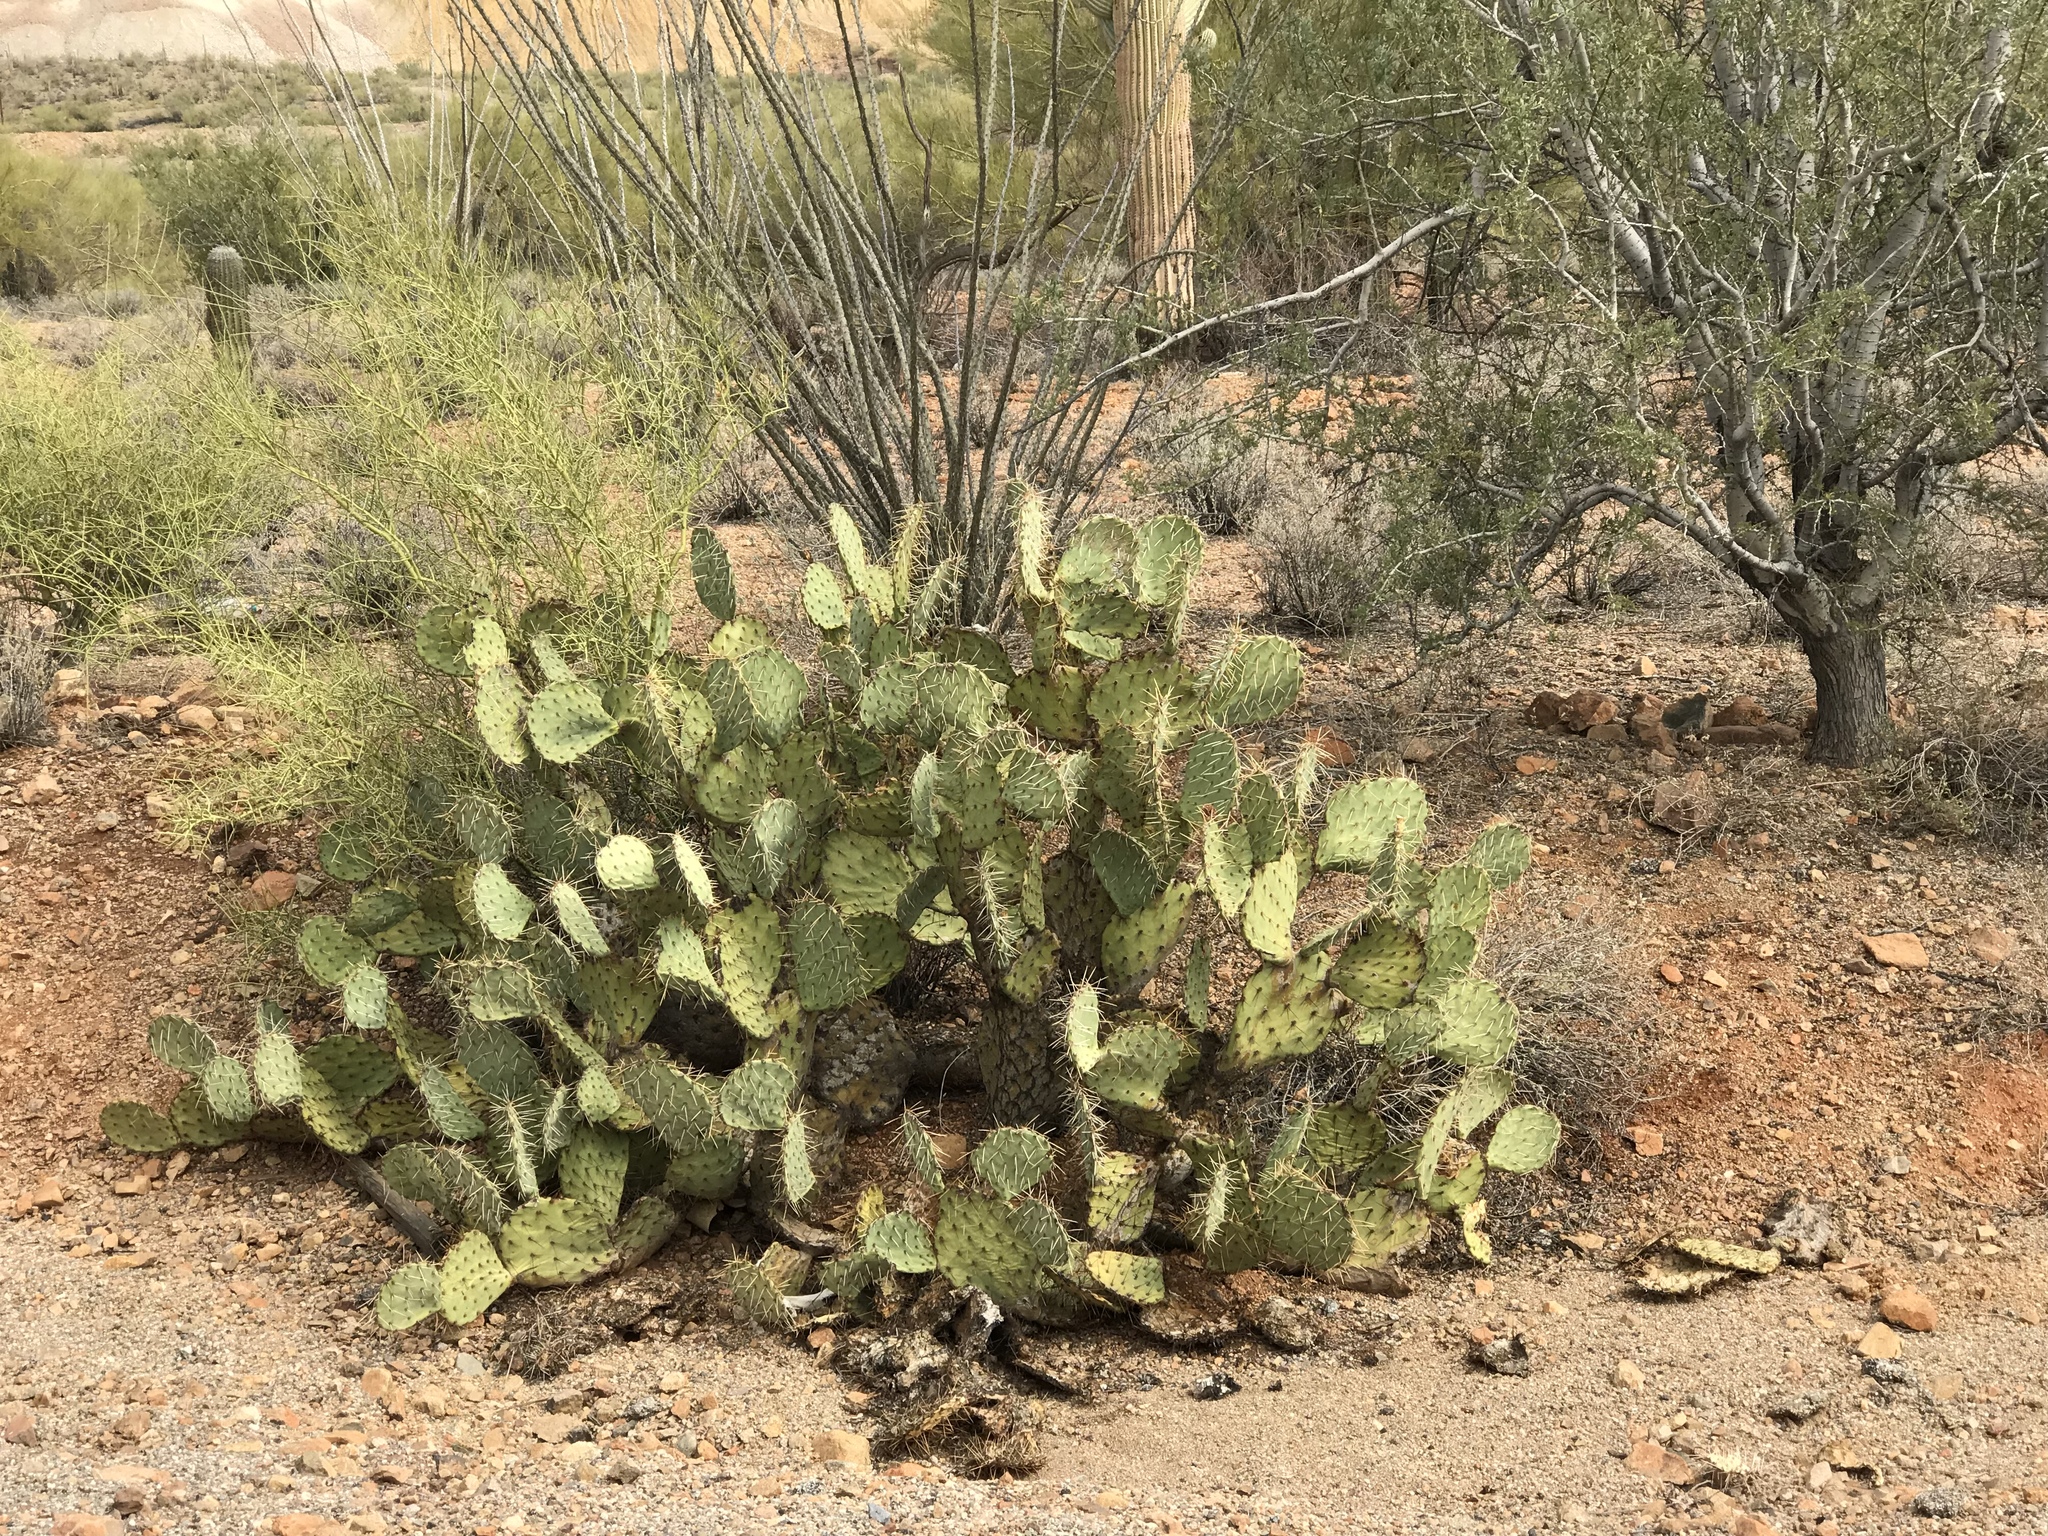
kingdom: Plantae
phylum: Tracheophyta
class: Magnoliopsida
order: Caryophyllales
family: Cactaceae
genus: Opuntia
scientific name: Opuntia engelmannii
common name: Cactus-apple
